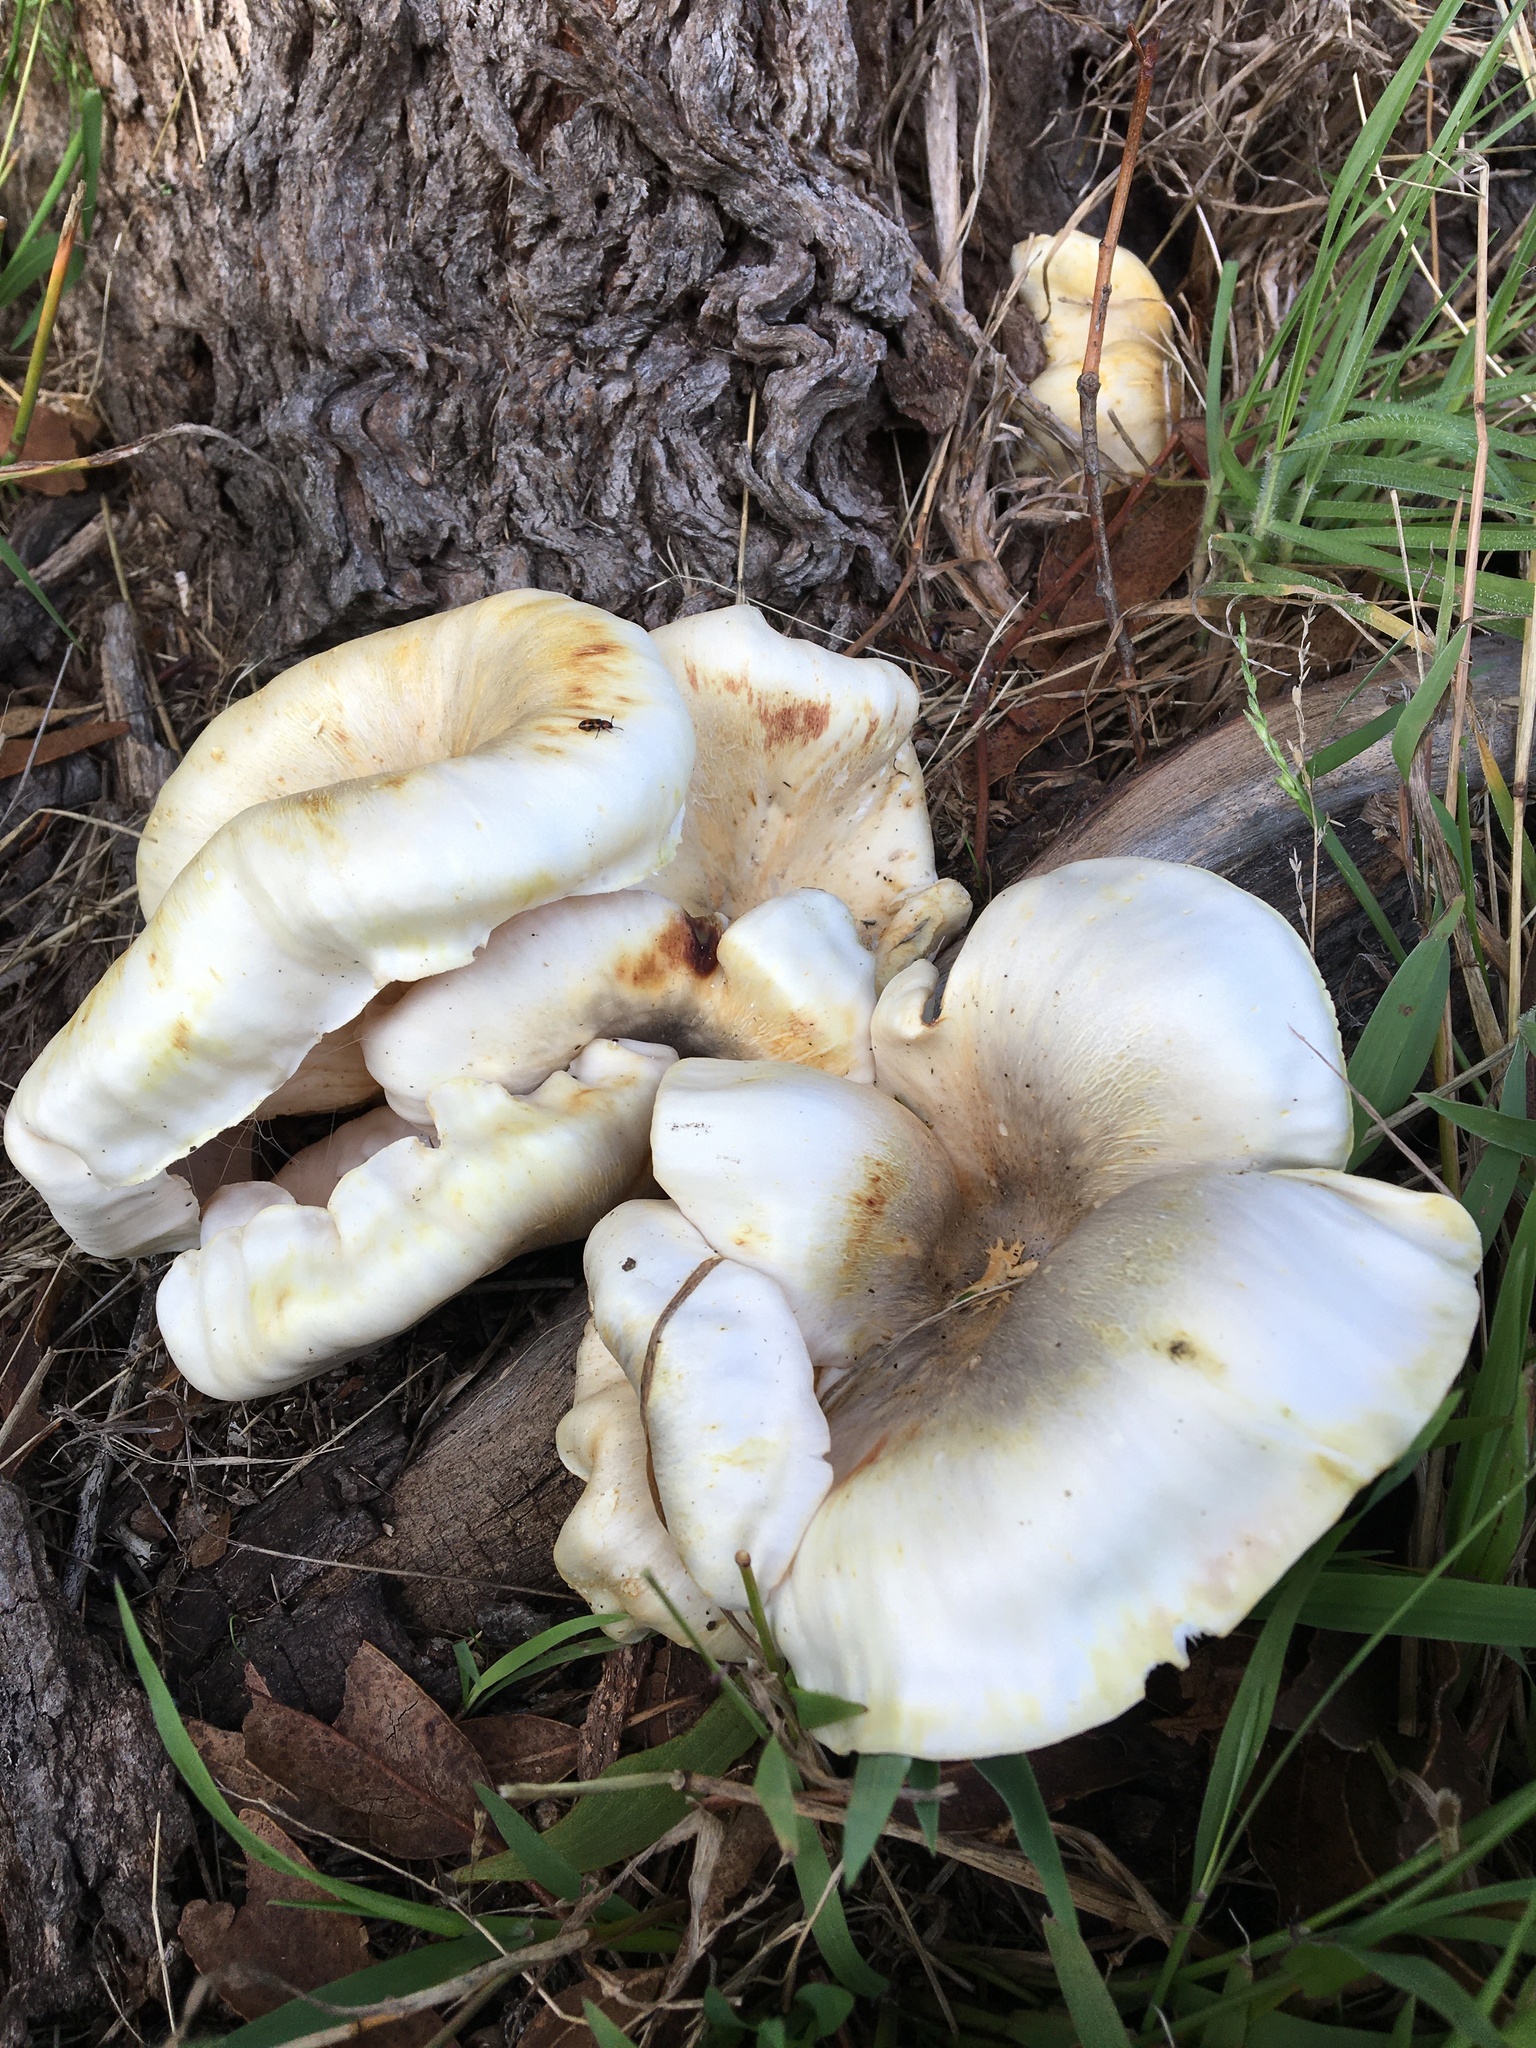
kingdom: Fungi
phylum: Basidiomycota
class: Agaricomycetes
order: Agaricales
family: Omphalotaceae
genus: Omphalotus
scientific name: Omphalotus nidiformis
